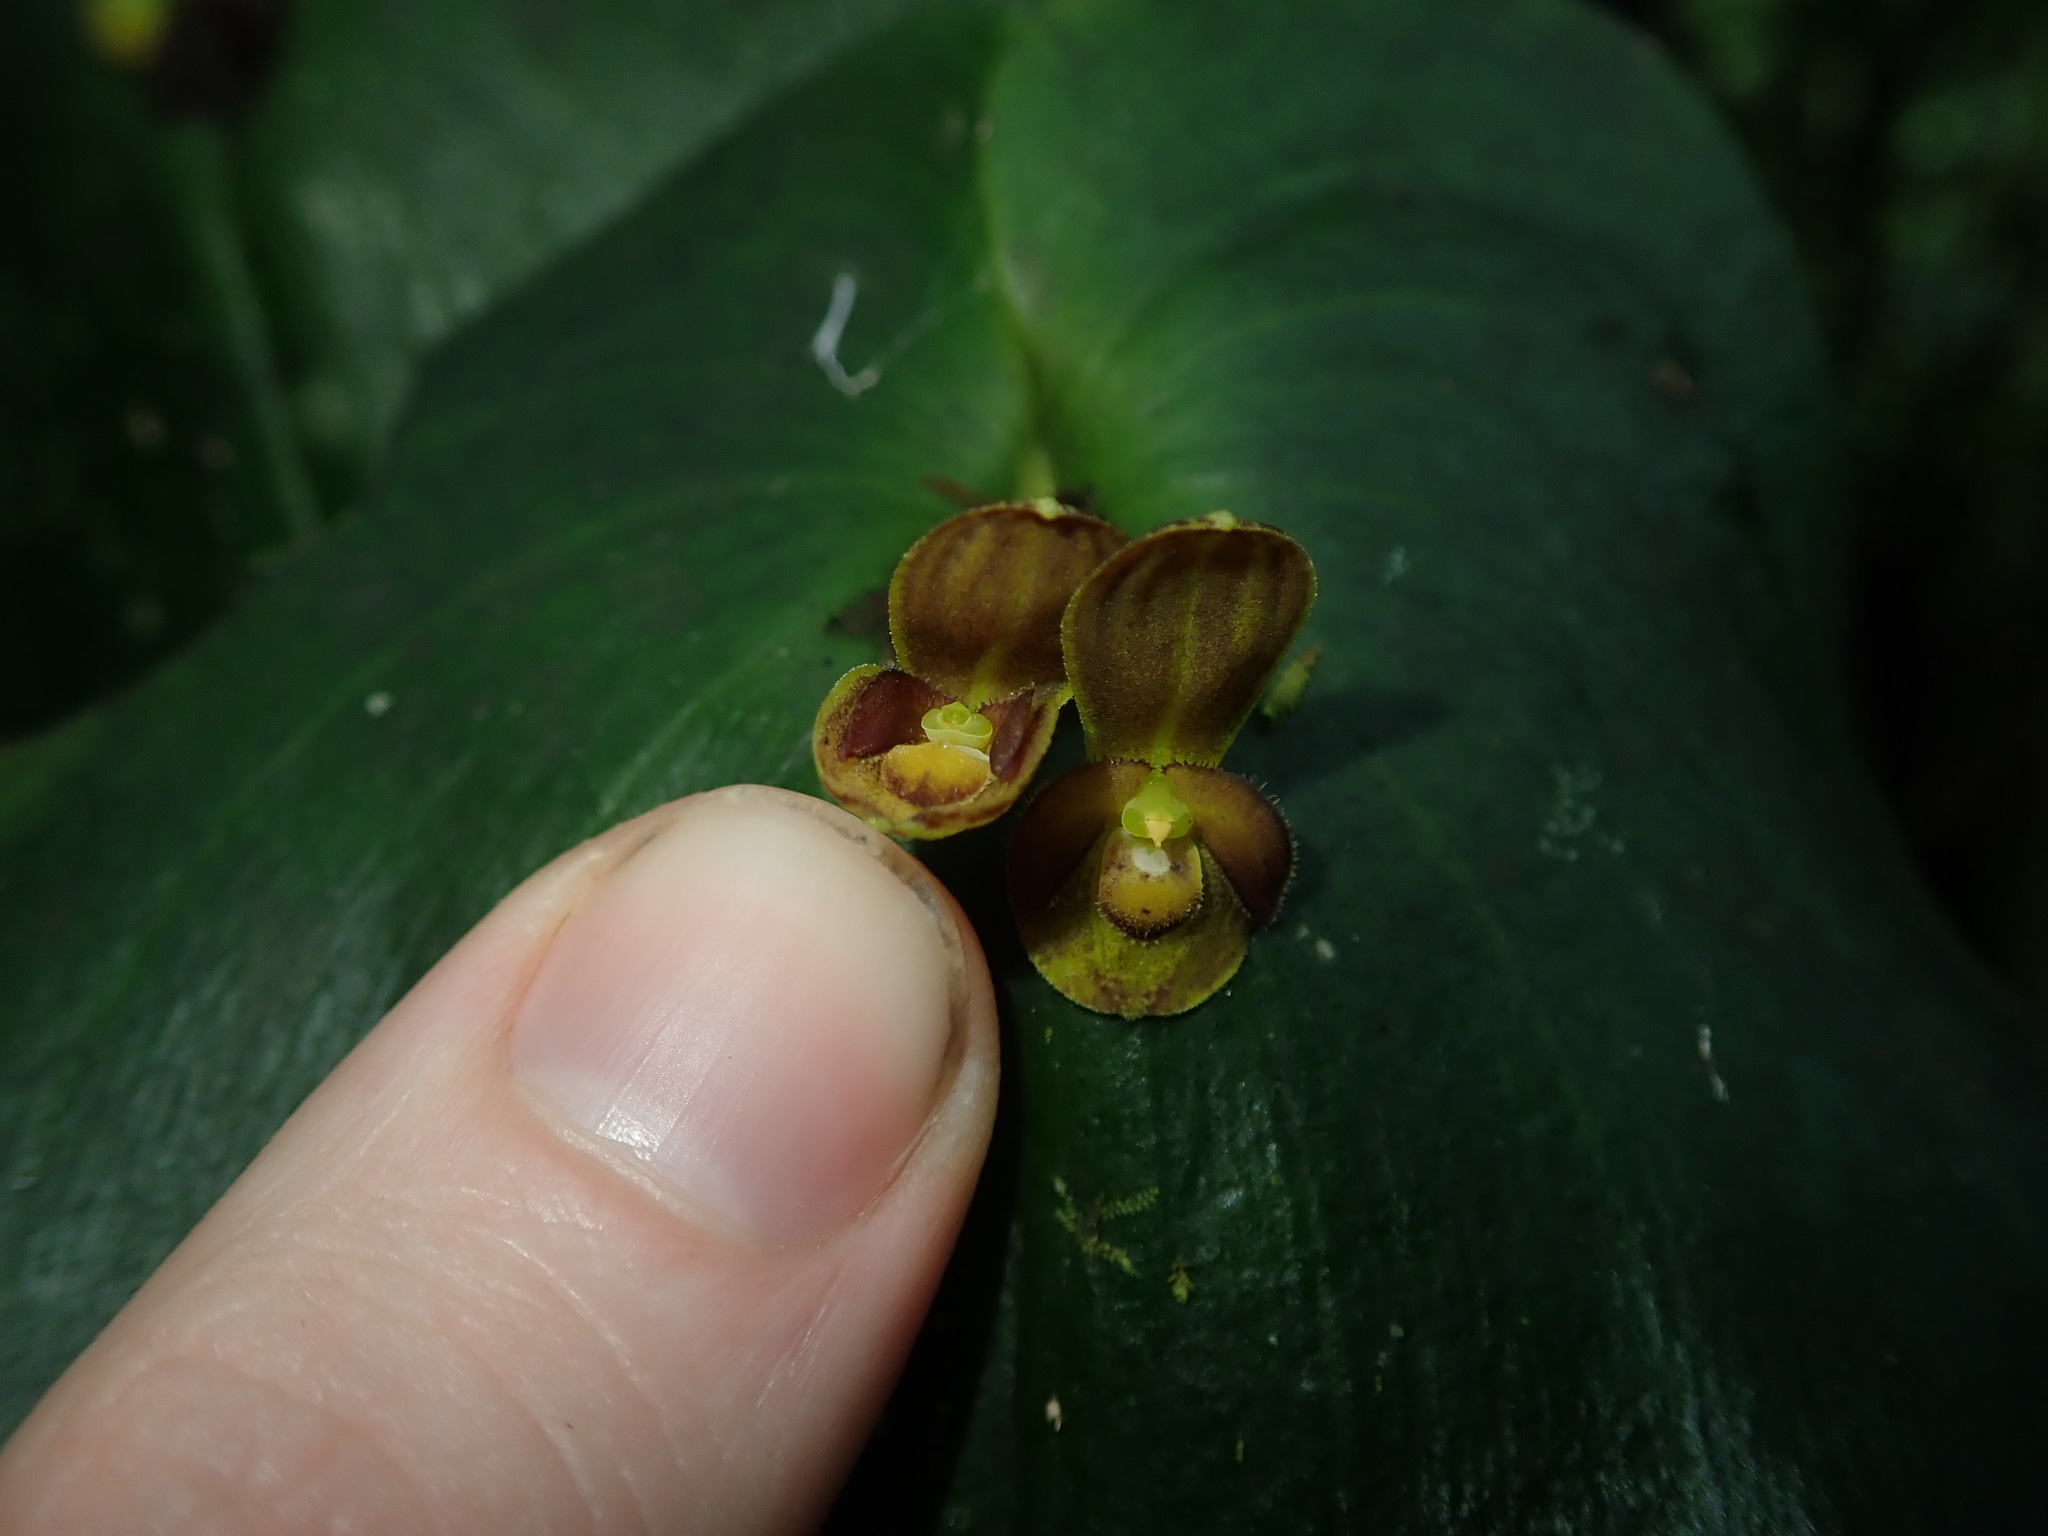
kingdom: Plantae
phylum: Tracheophyta
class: Liliopsida
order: Asparagales
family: Orchidaceae
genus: Pleurothallis
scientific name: Pleurothallis cordata
